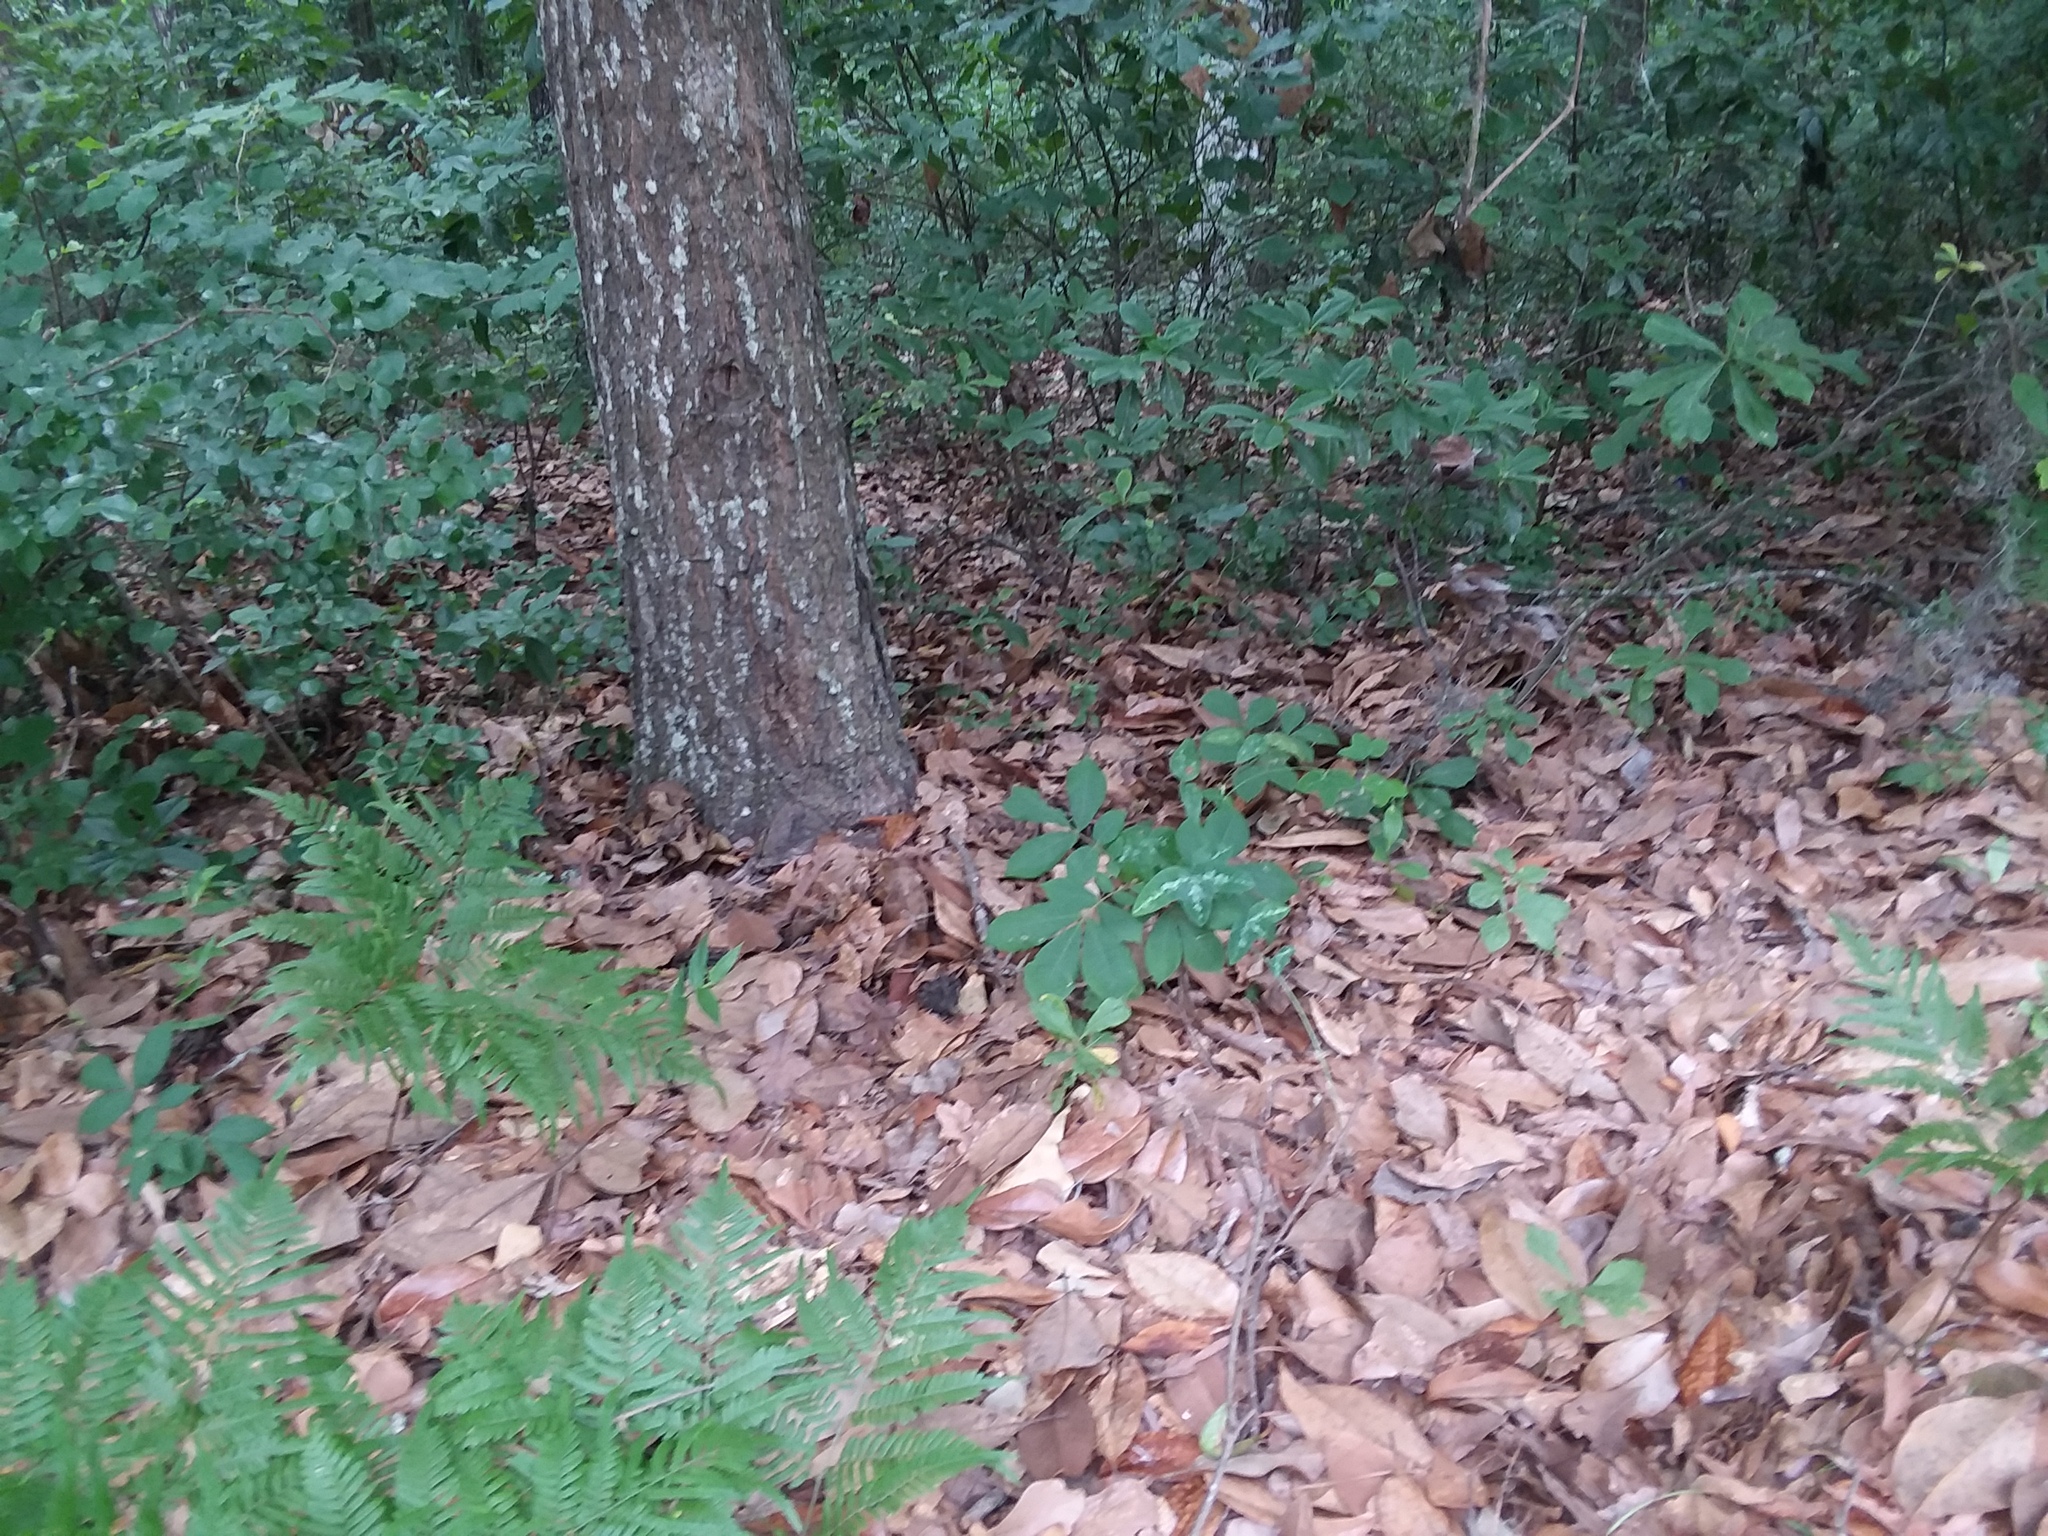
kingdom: Plantae
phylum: Tracheophyta
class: Magnoliopsida
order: Malpighiales
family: Passifloraceae
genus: Passiflora
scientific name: Passiflora lutea
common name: Yellow passionflower
